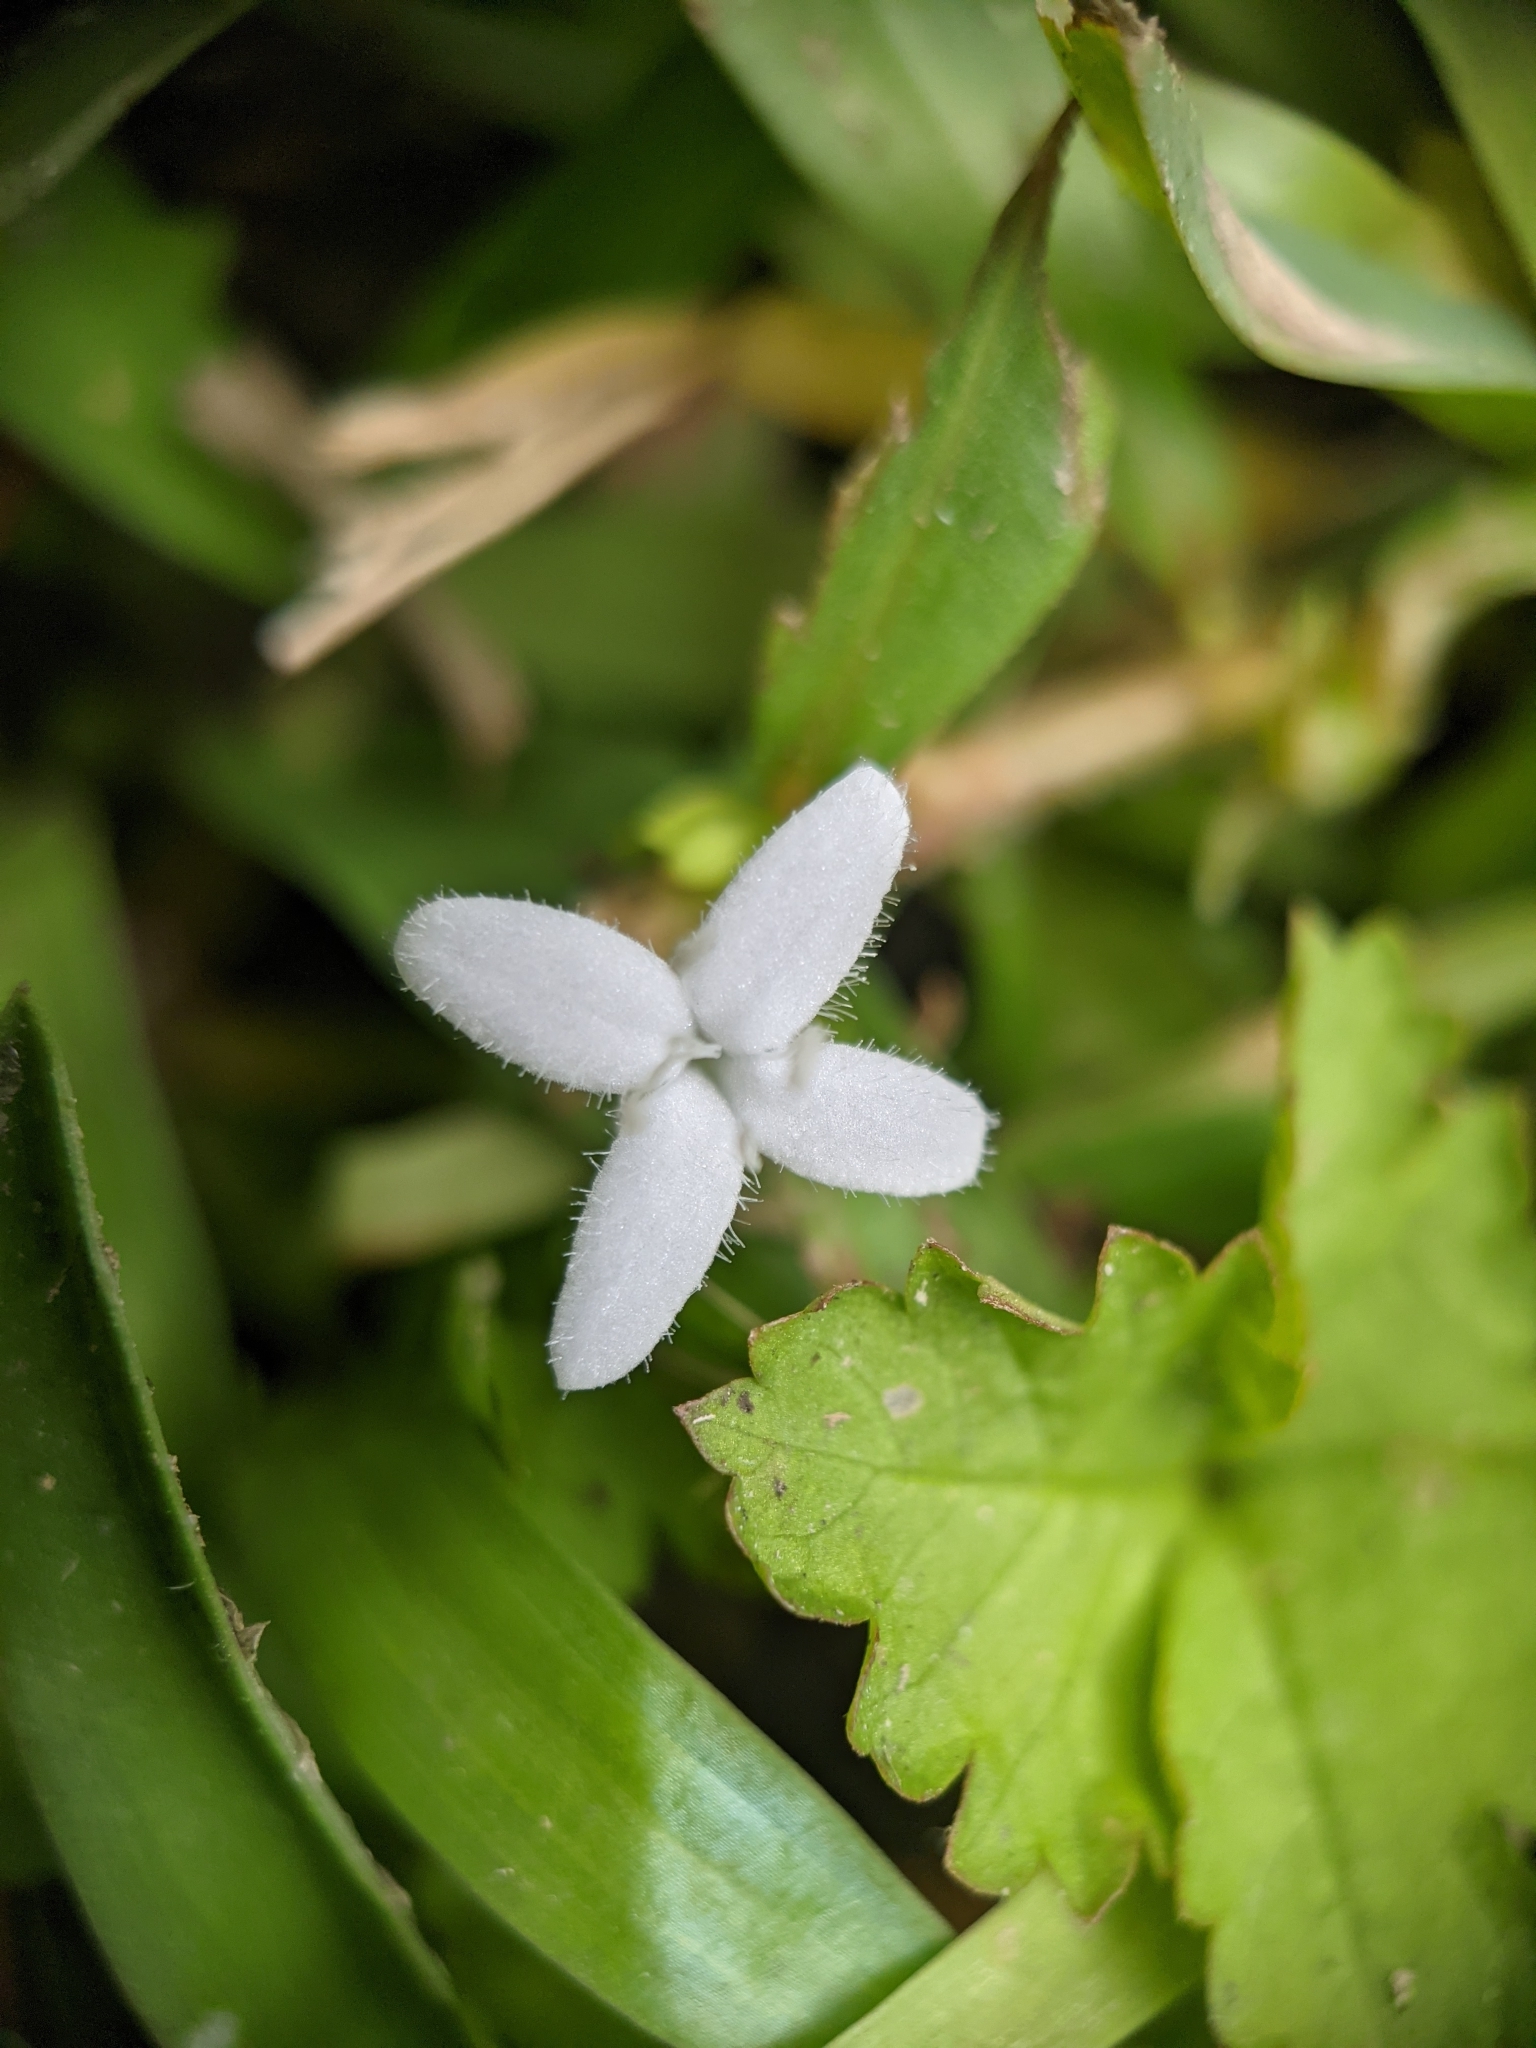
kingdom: Plantae
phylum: Tracheophyta
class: Magnoliopsida
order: Gentianales
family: Rubiaceae
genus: Diodia
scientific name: Diodia virginiana
